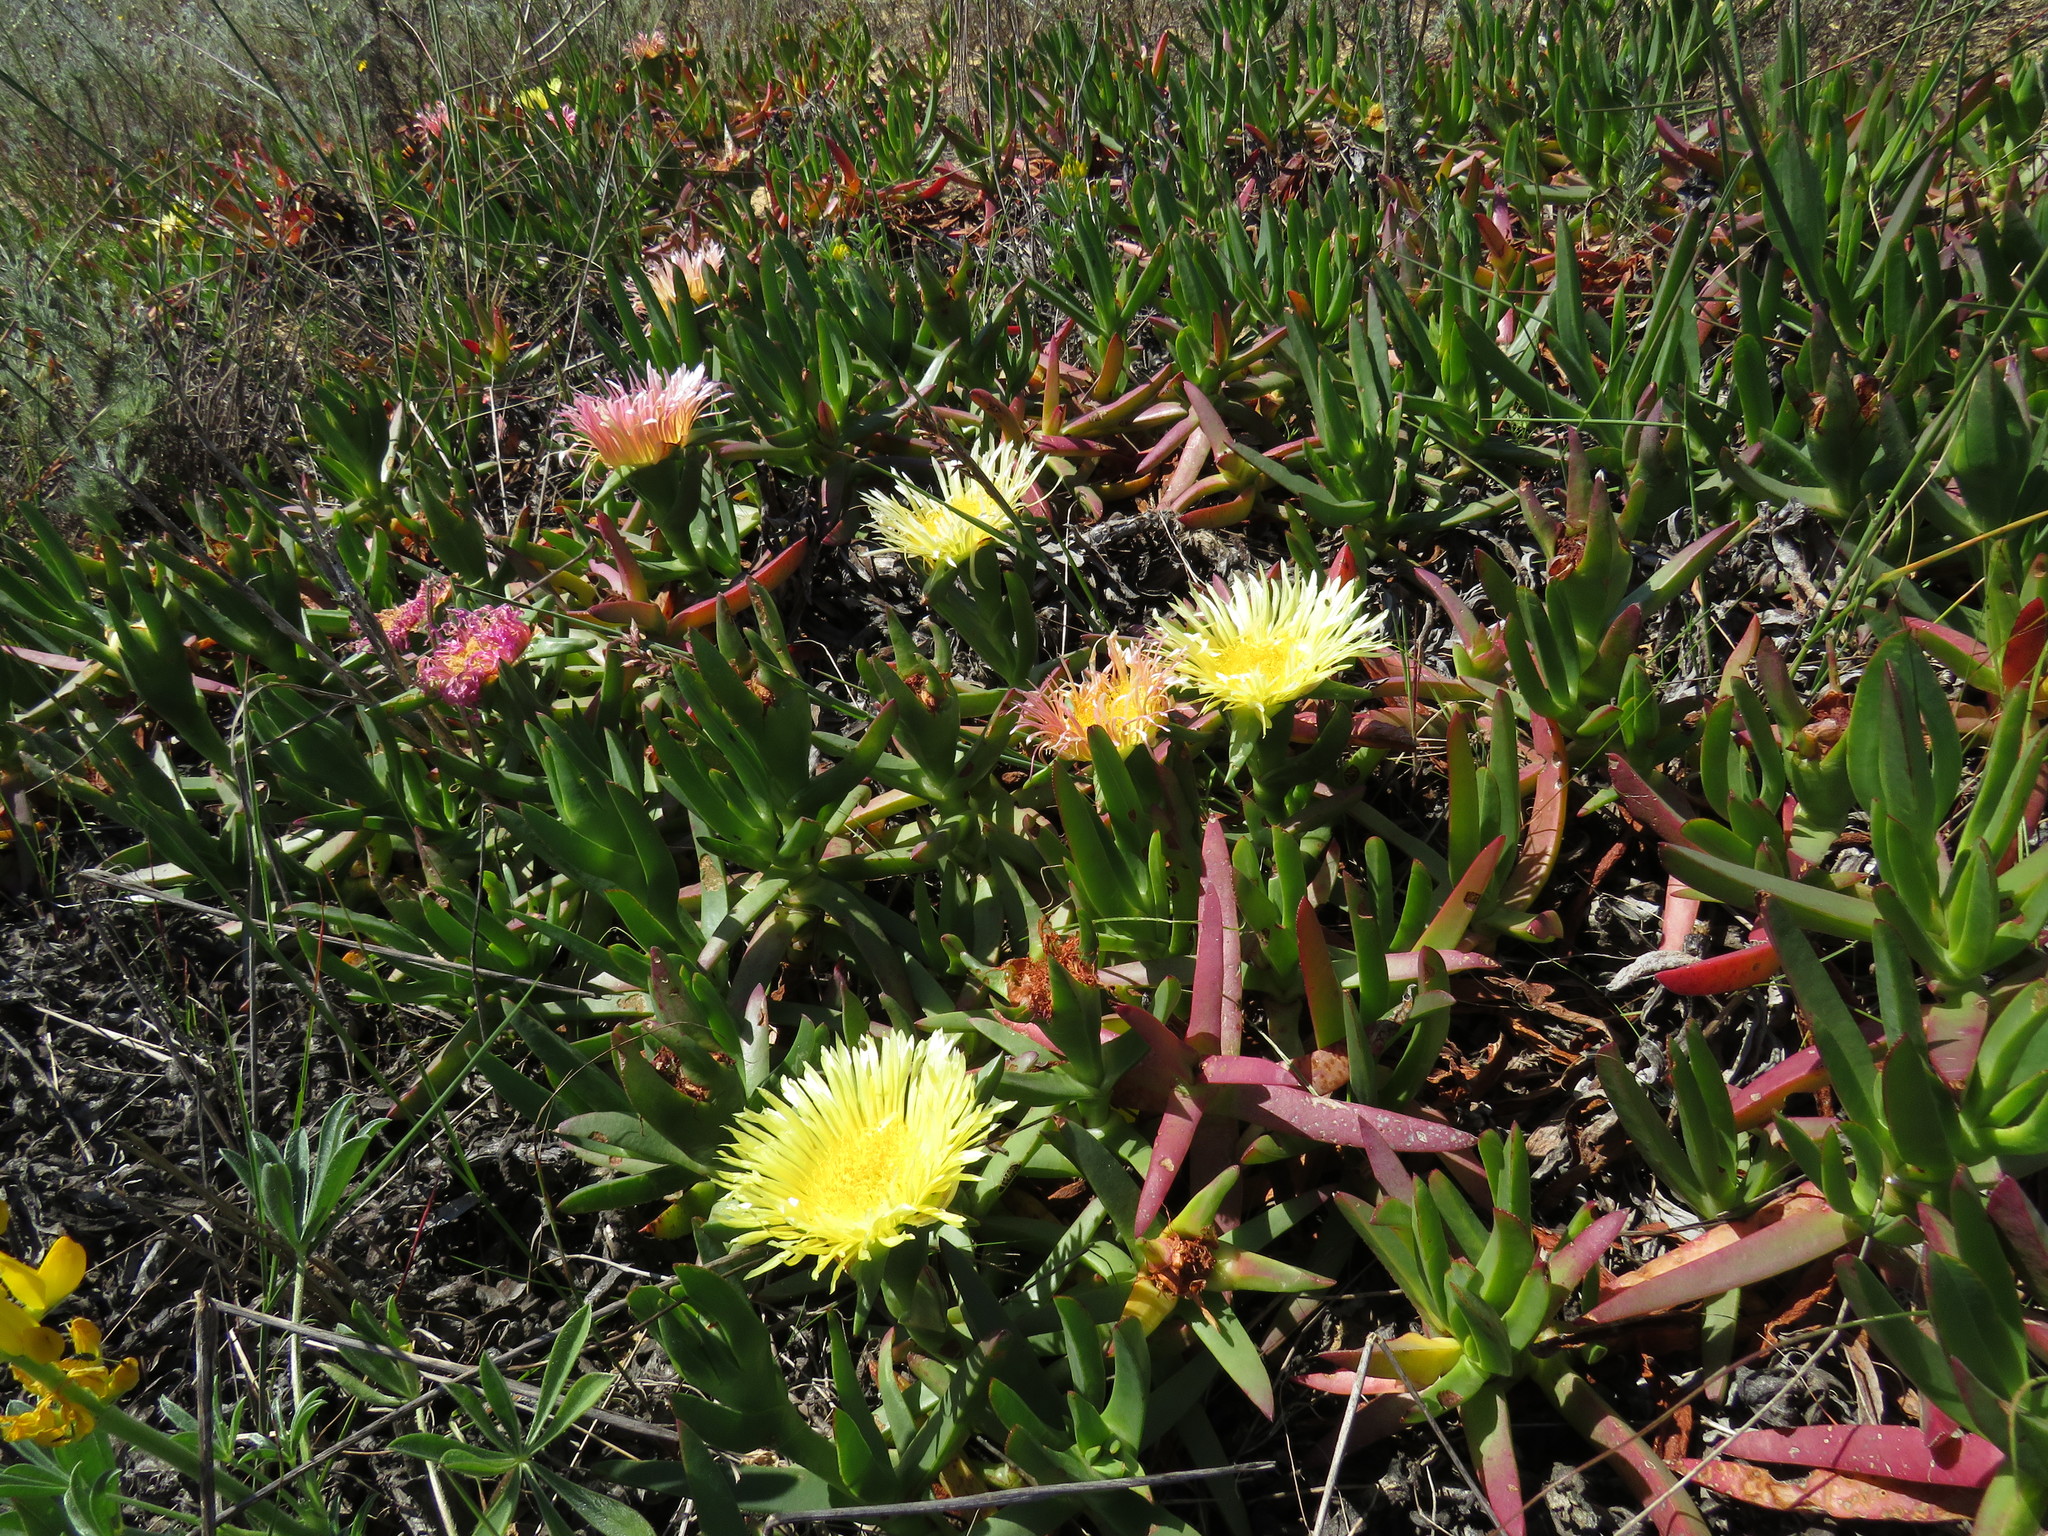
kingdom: Plantae
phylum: Tracheophyta
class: Magnoliopsida
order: Caryophyllales
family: Aizoaceae
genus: Carpobrotus
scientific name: Carpobrotus edulis
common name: Hottentot-fig
